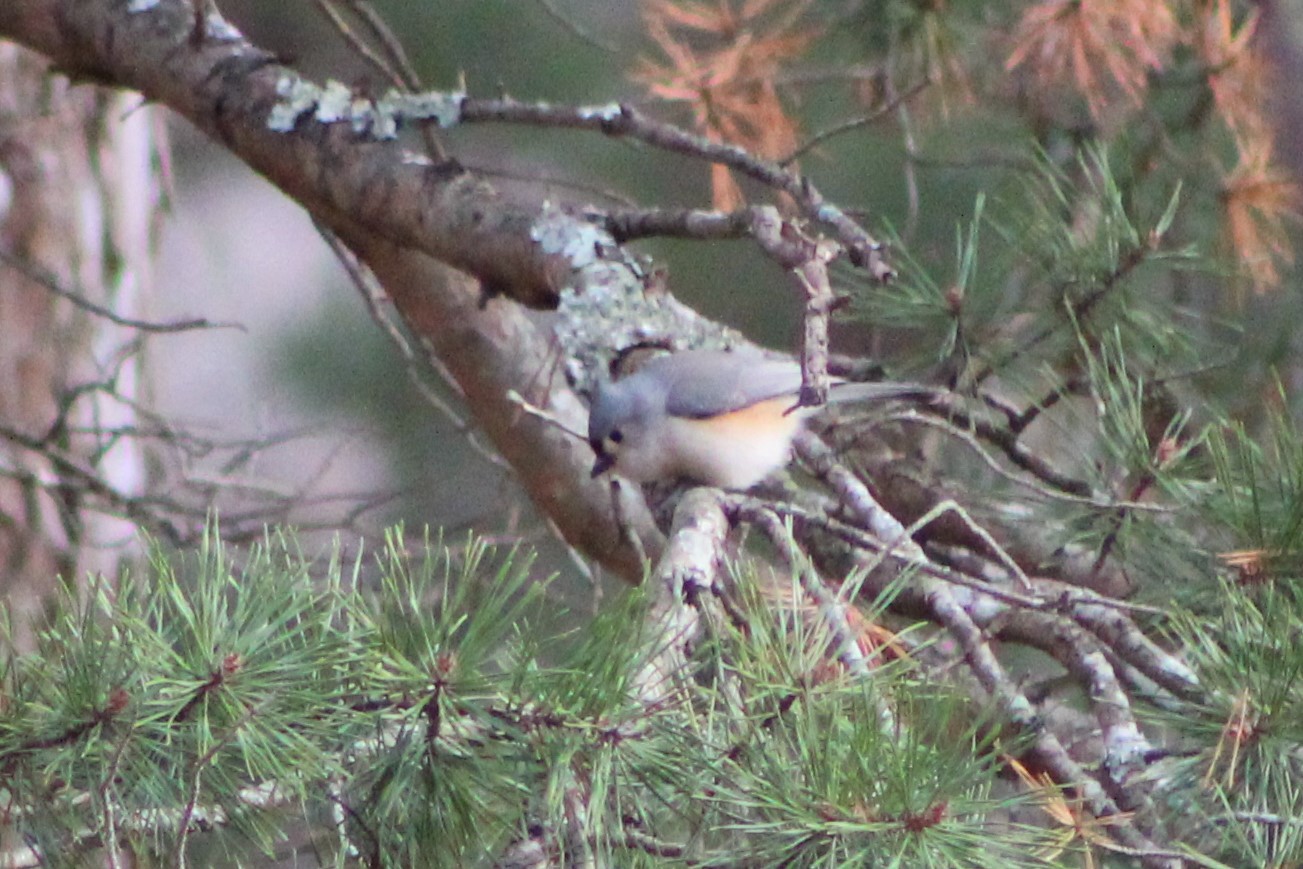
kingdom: Animalia
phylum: Chordata
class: Aves
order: Passeriformes
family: Paridae
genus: Baeolophus
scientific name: Baeolophus bicolor
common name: Tufted titmouse
